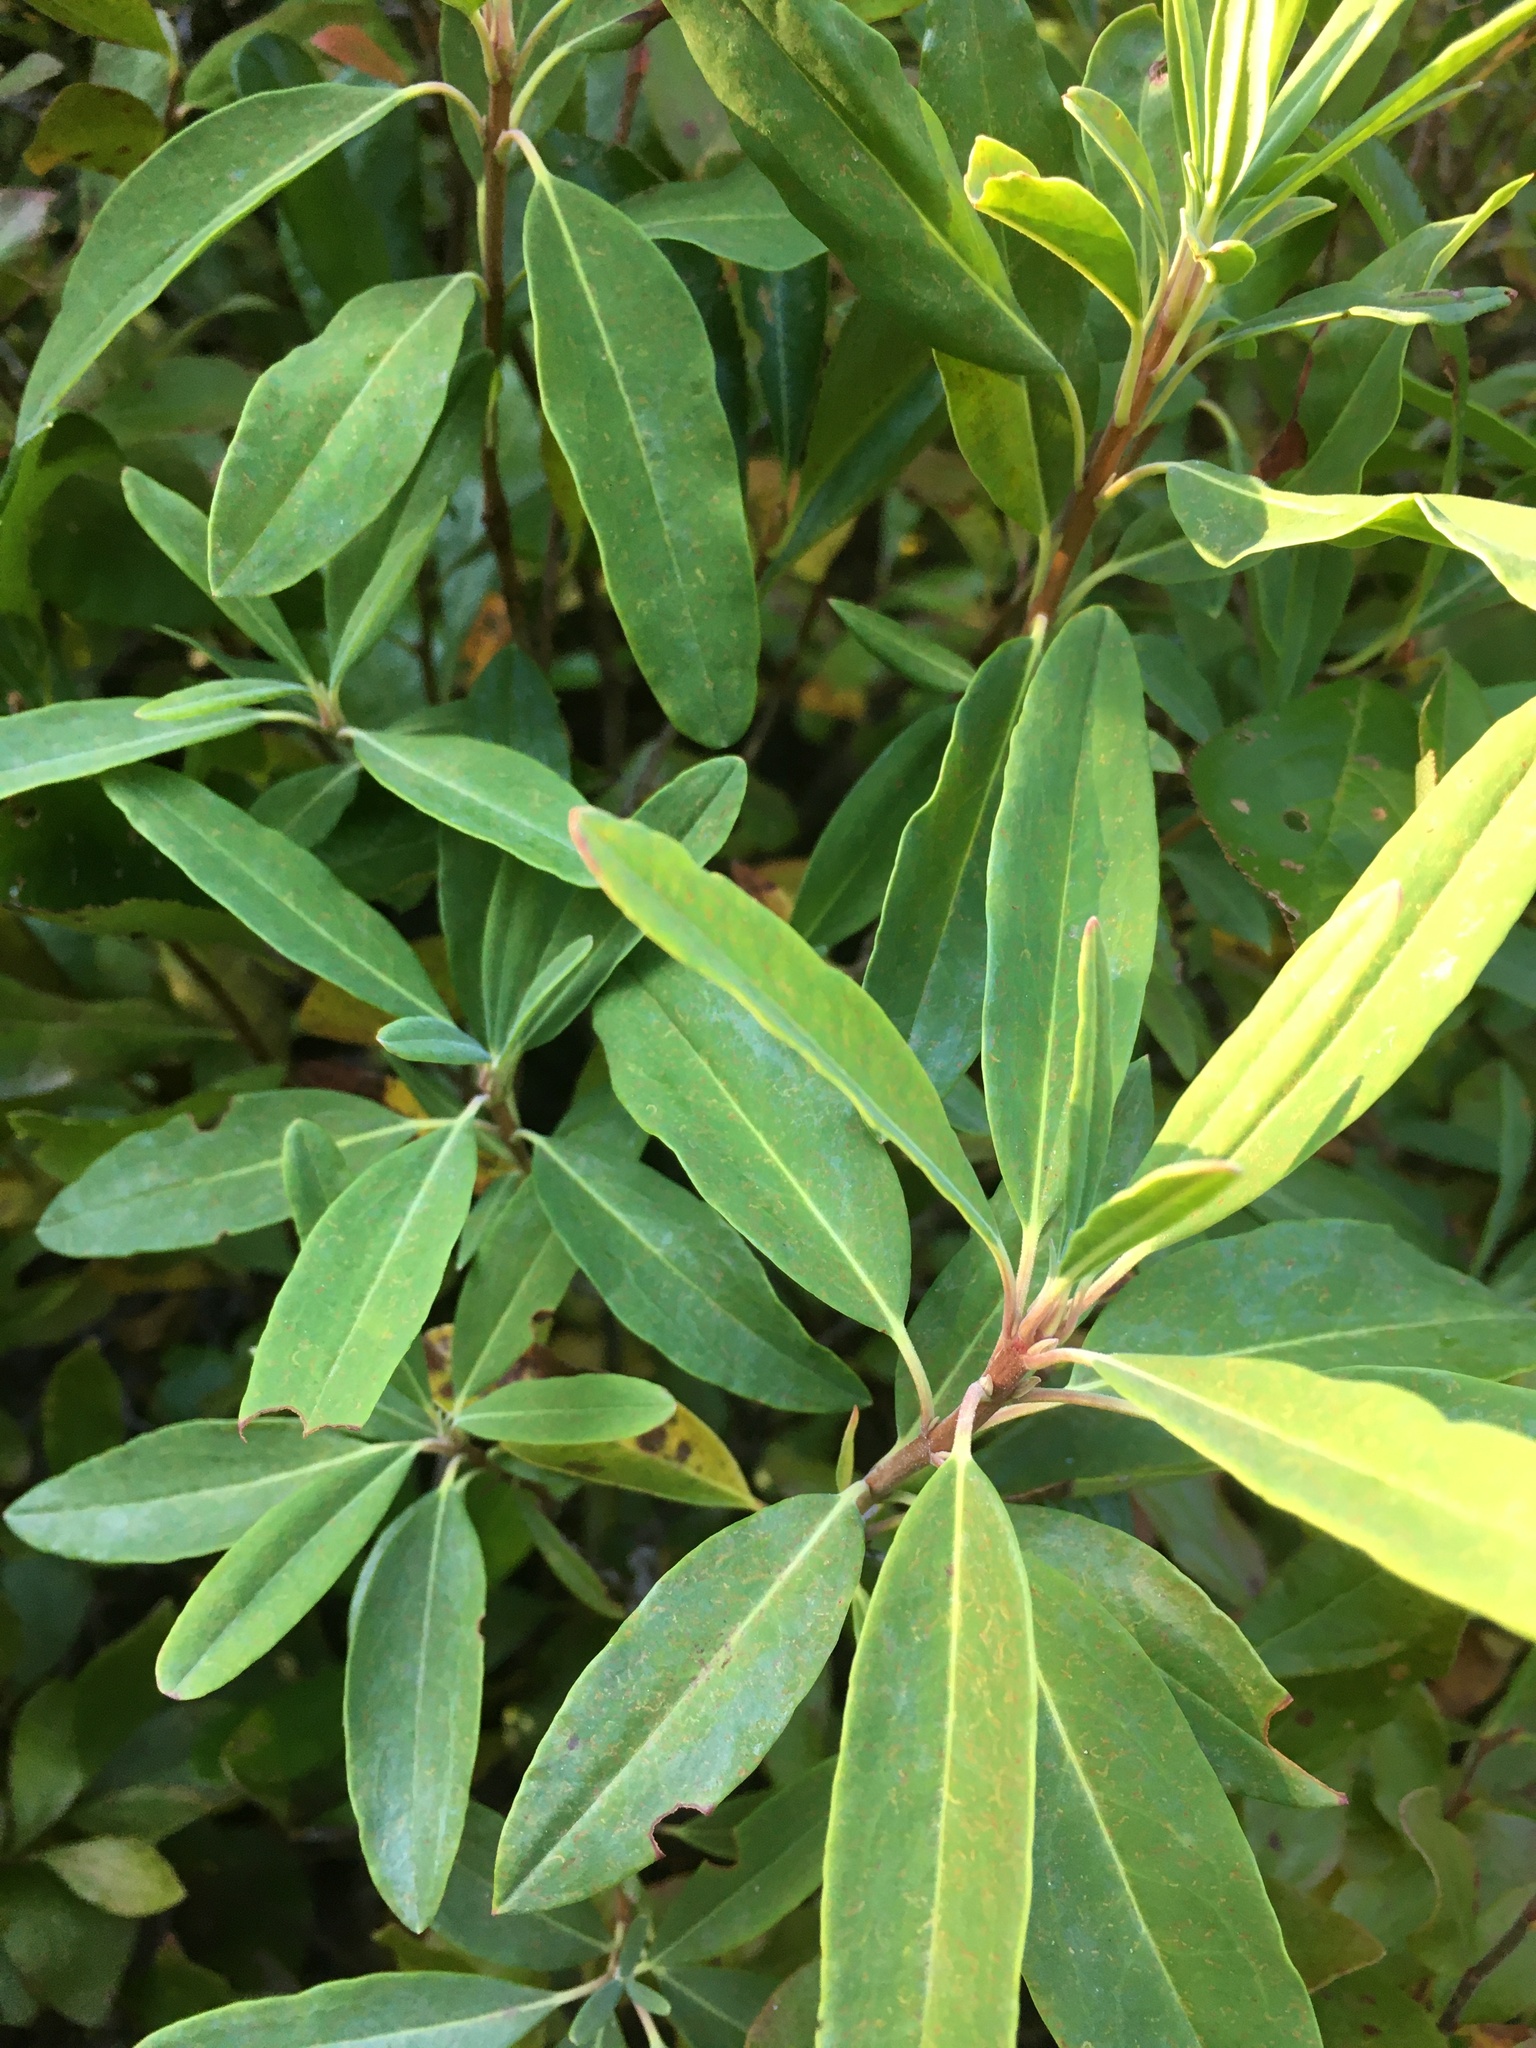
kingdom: Plantae
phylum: Tracheophyta
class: Magnoliopsida
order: Ericales
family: Ericaceae
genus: Kalmia
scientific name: Kalmia angustifolia
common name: Sheep-laurel
